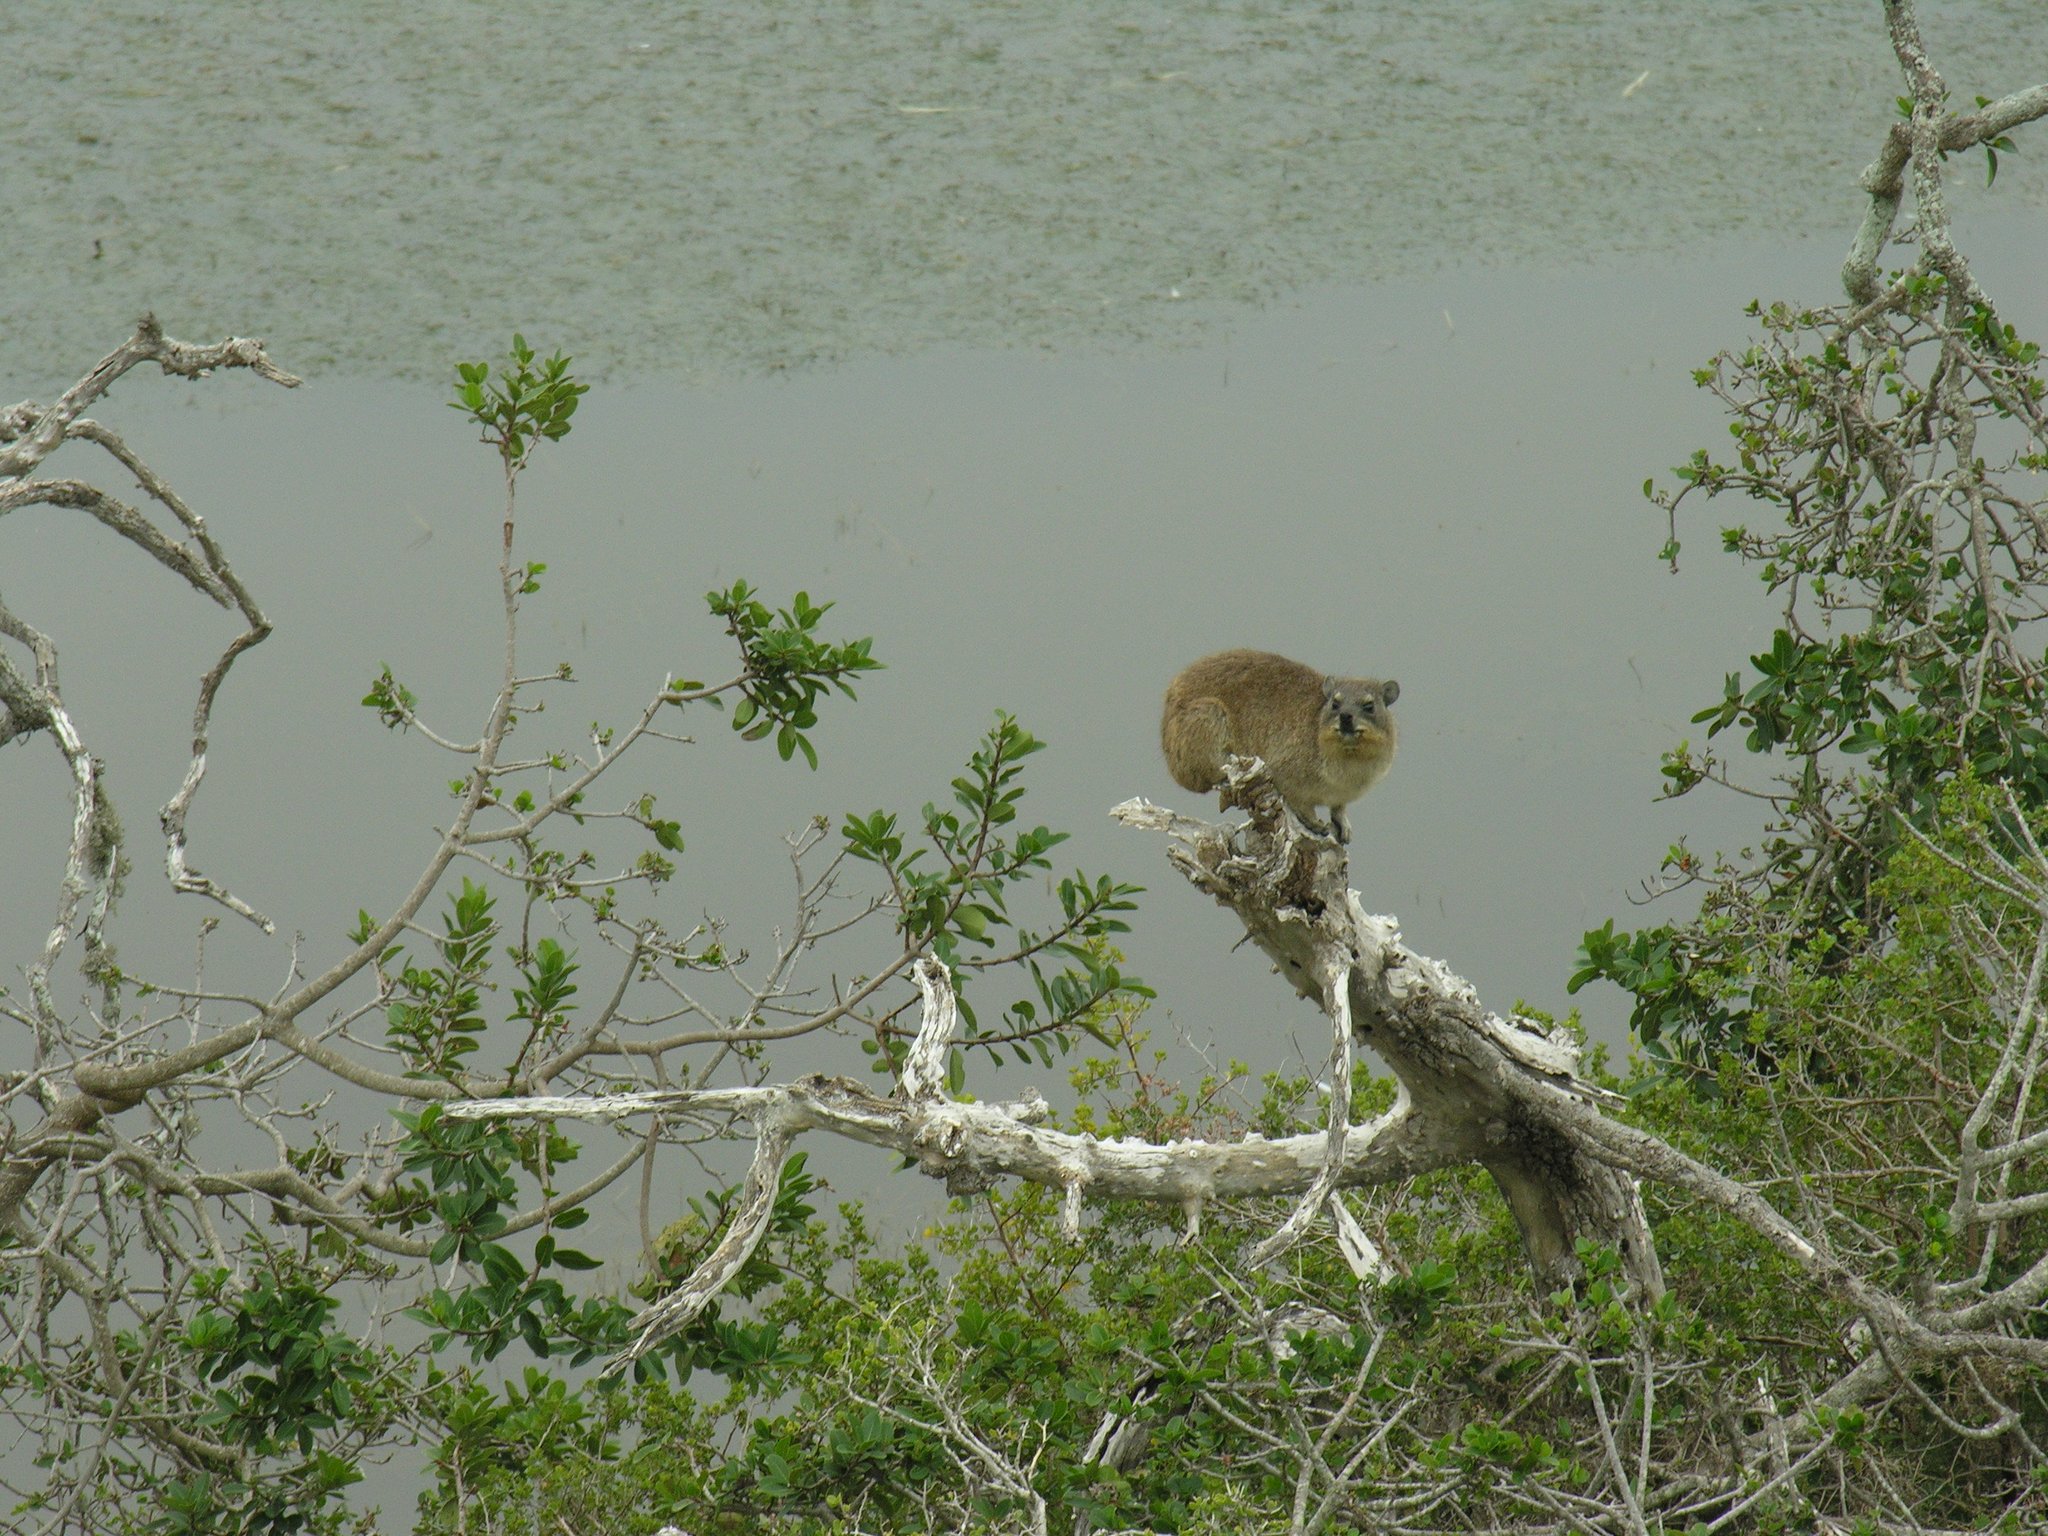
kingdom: Animalia
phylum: Chordata
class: Mammalia
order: Hyracoidea
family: Procaviidae
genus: Procavia
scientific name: Procavia capensis
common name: Rock hyrax
